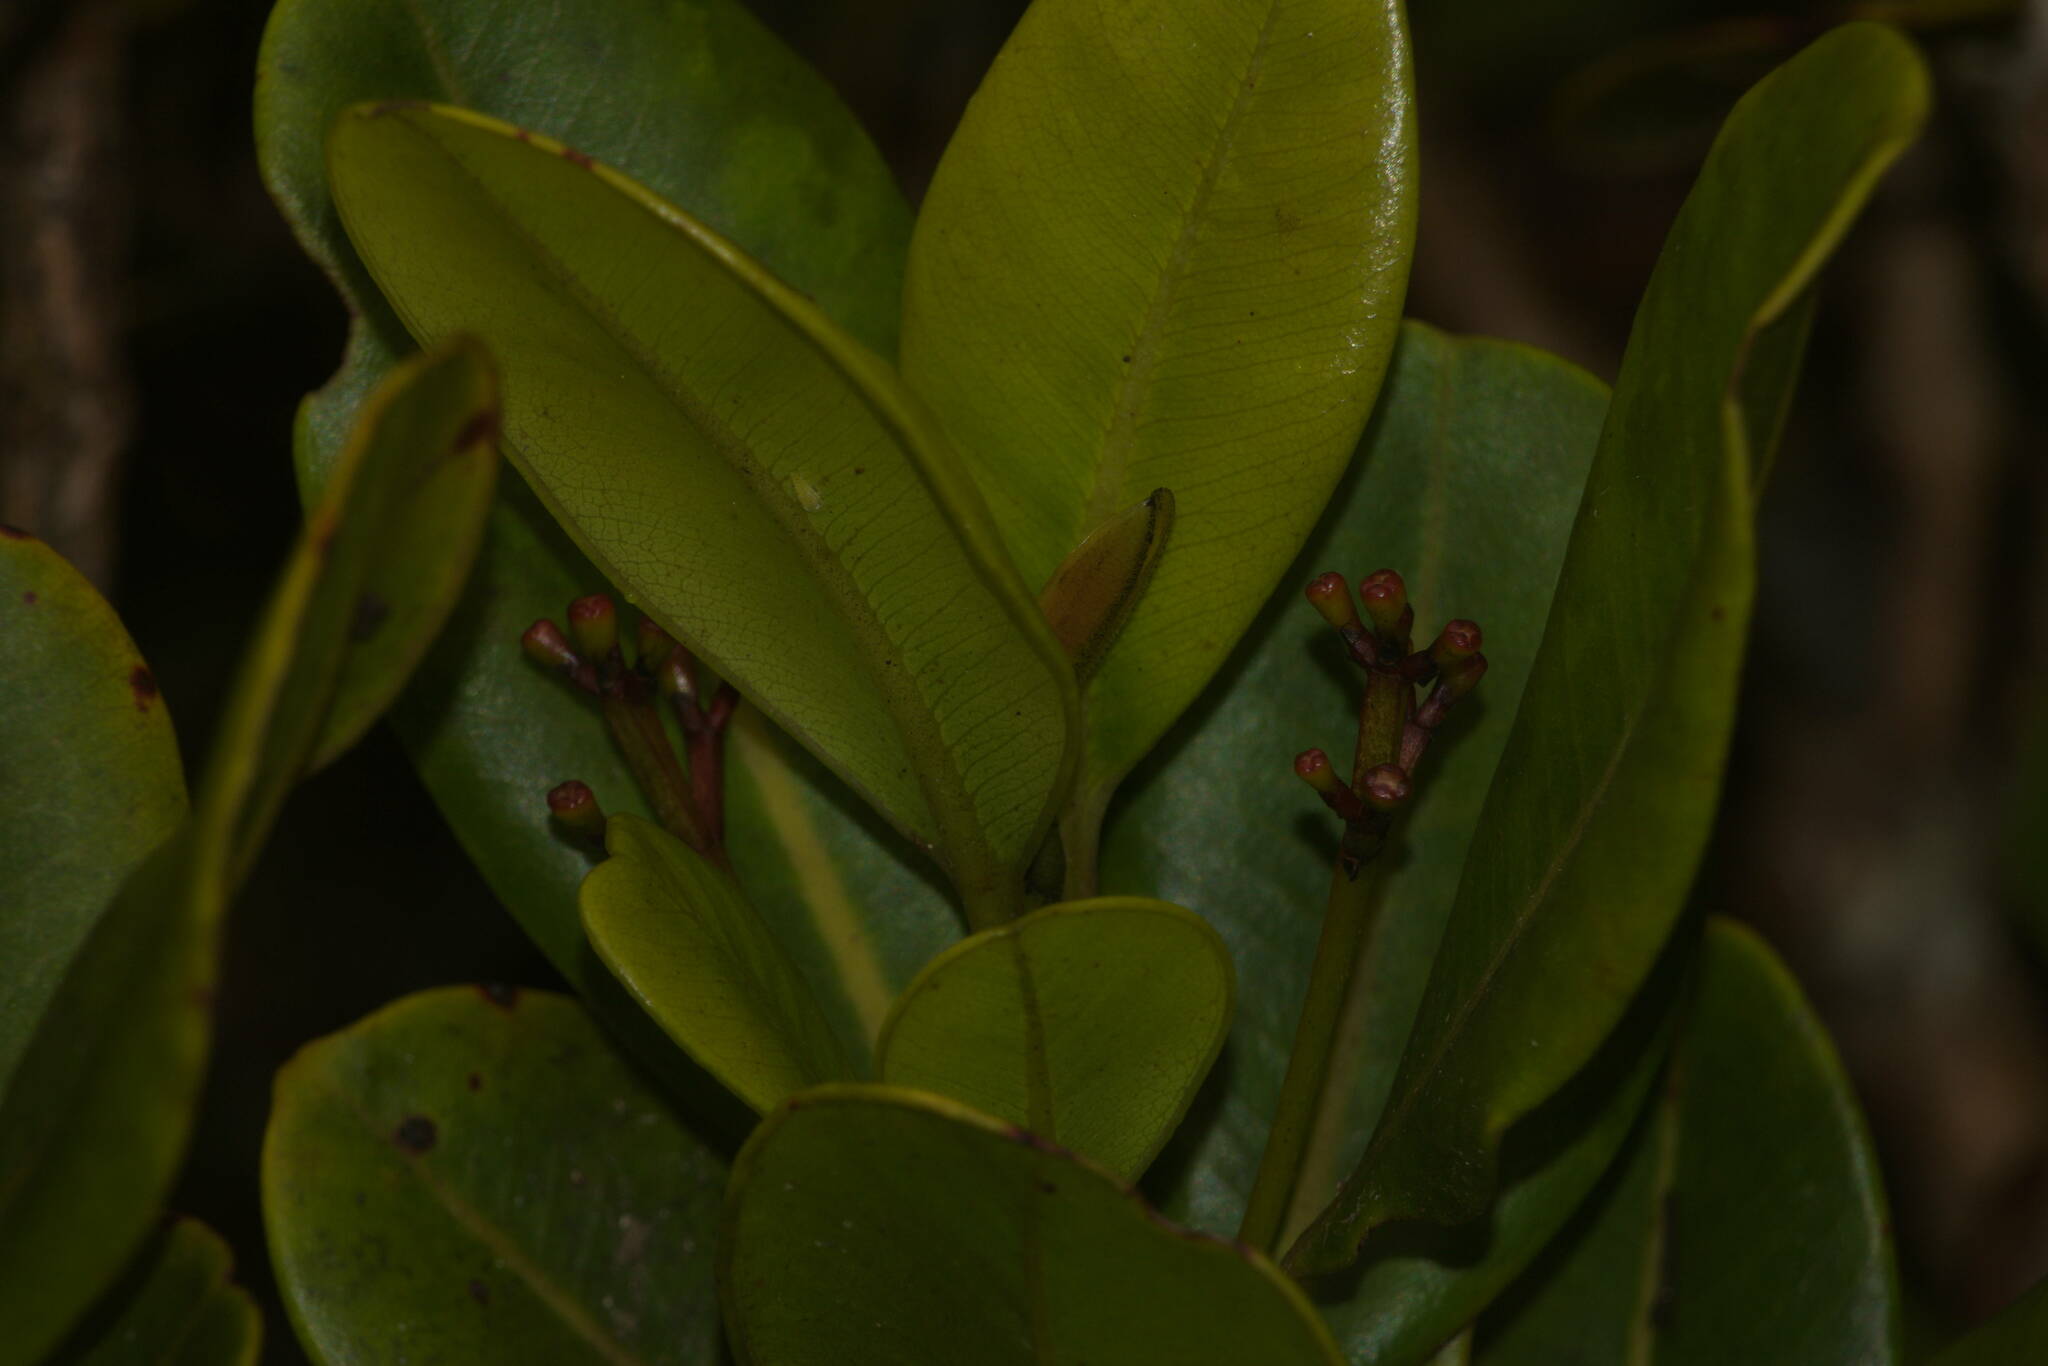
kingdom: Plantae
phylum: Tracheophyta
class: Magnoliopsida
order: Myrtales
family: Myrtaceae
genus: Syzygium
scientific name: Syzygium sandwicense
